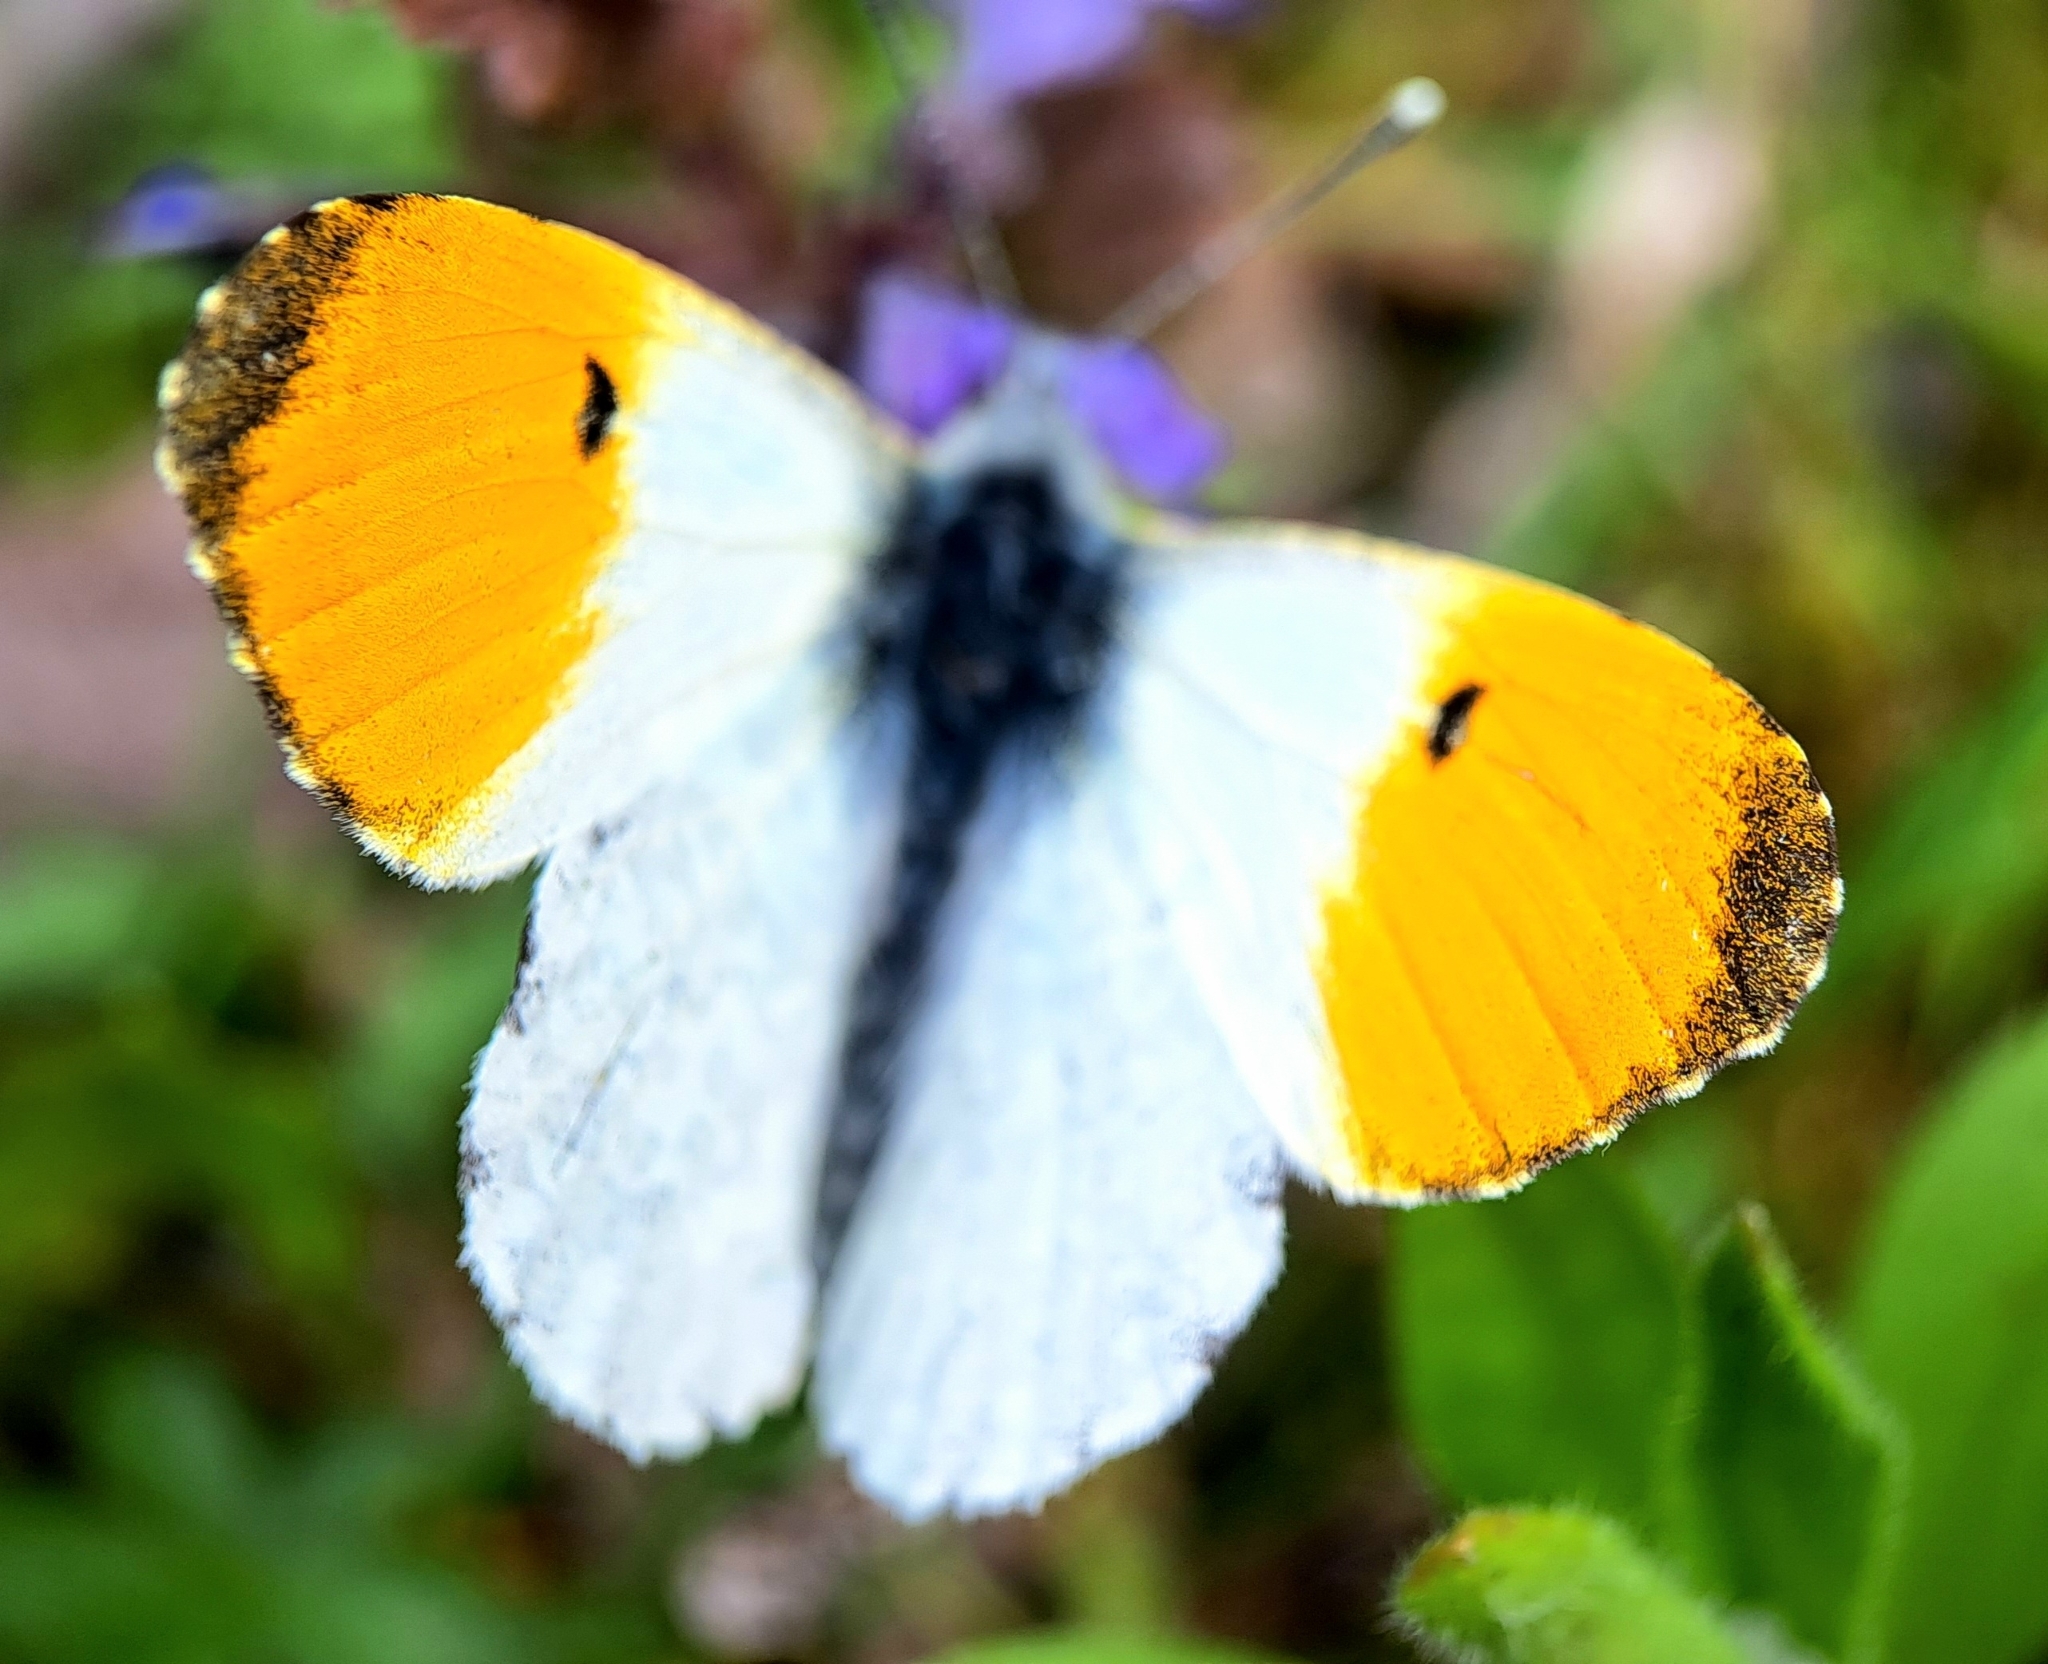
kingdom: Animalia
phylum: Arthropoda
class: Insecta
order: Lepidoptera
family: Pieridae
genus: Anthocharis
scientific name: Anthocharis cardamines
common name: Orange-tip
